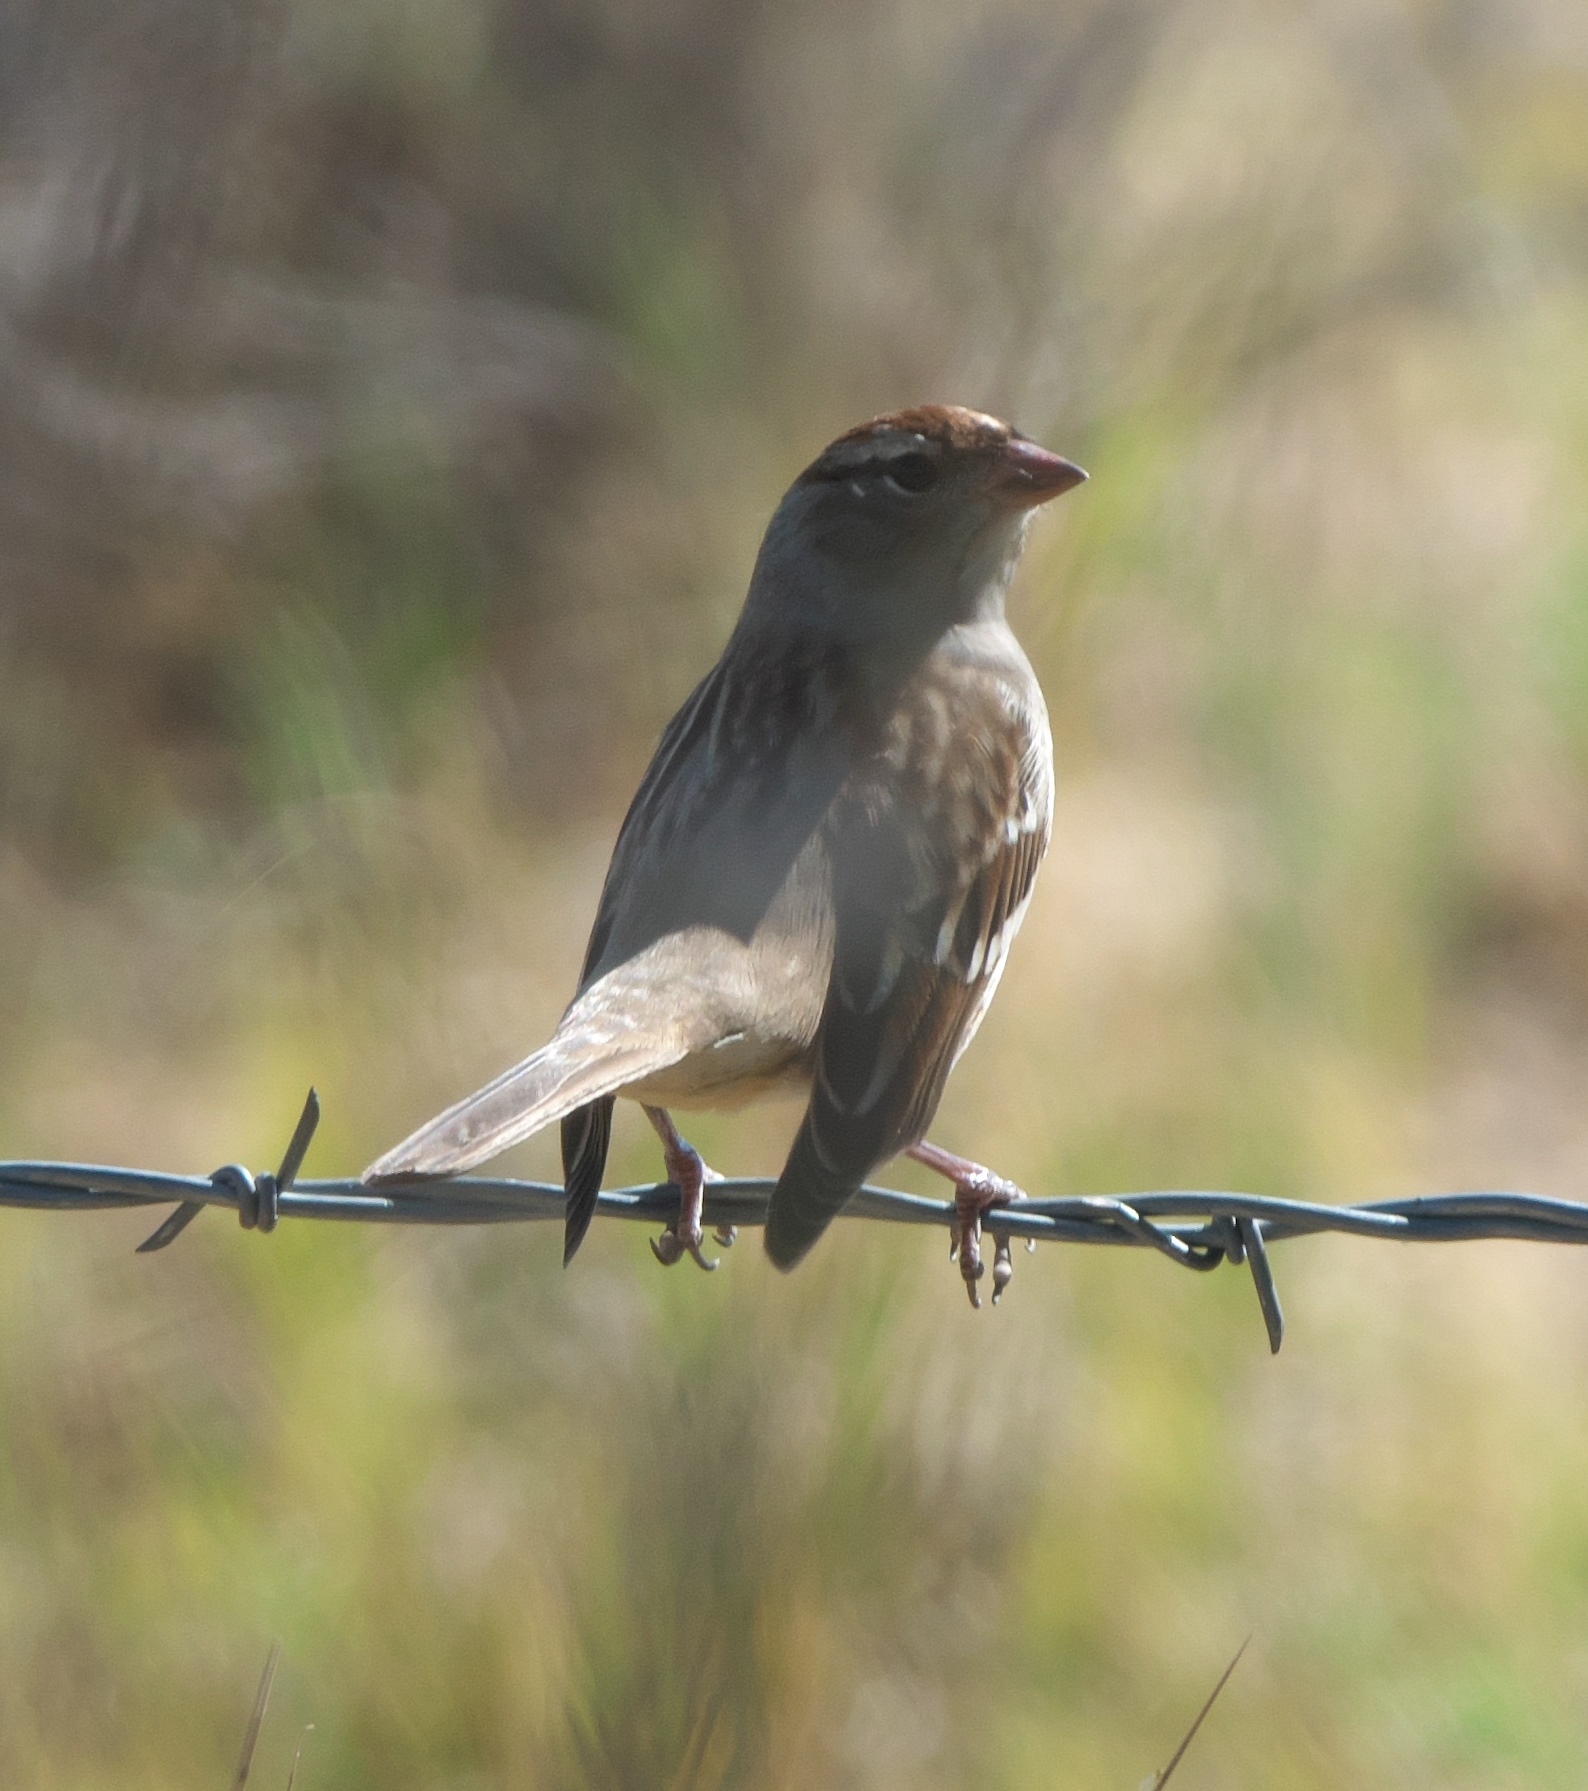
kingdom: Animalia
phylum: Chordata
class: Aves
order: Passeriformes
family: Passerellidae
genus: Spizella
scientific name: Spizella passerina
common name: Chipping sparrow
